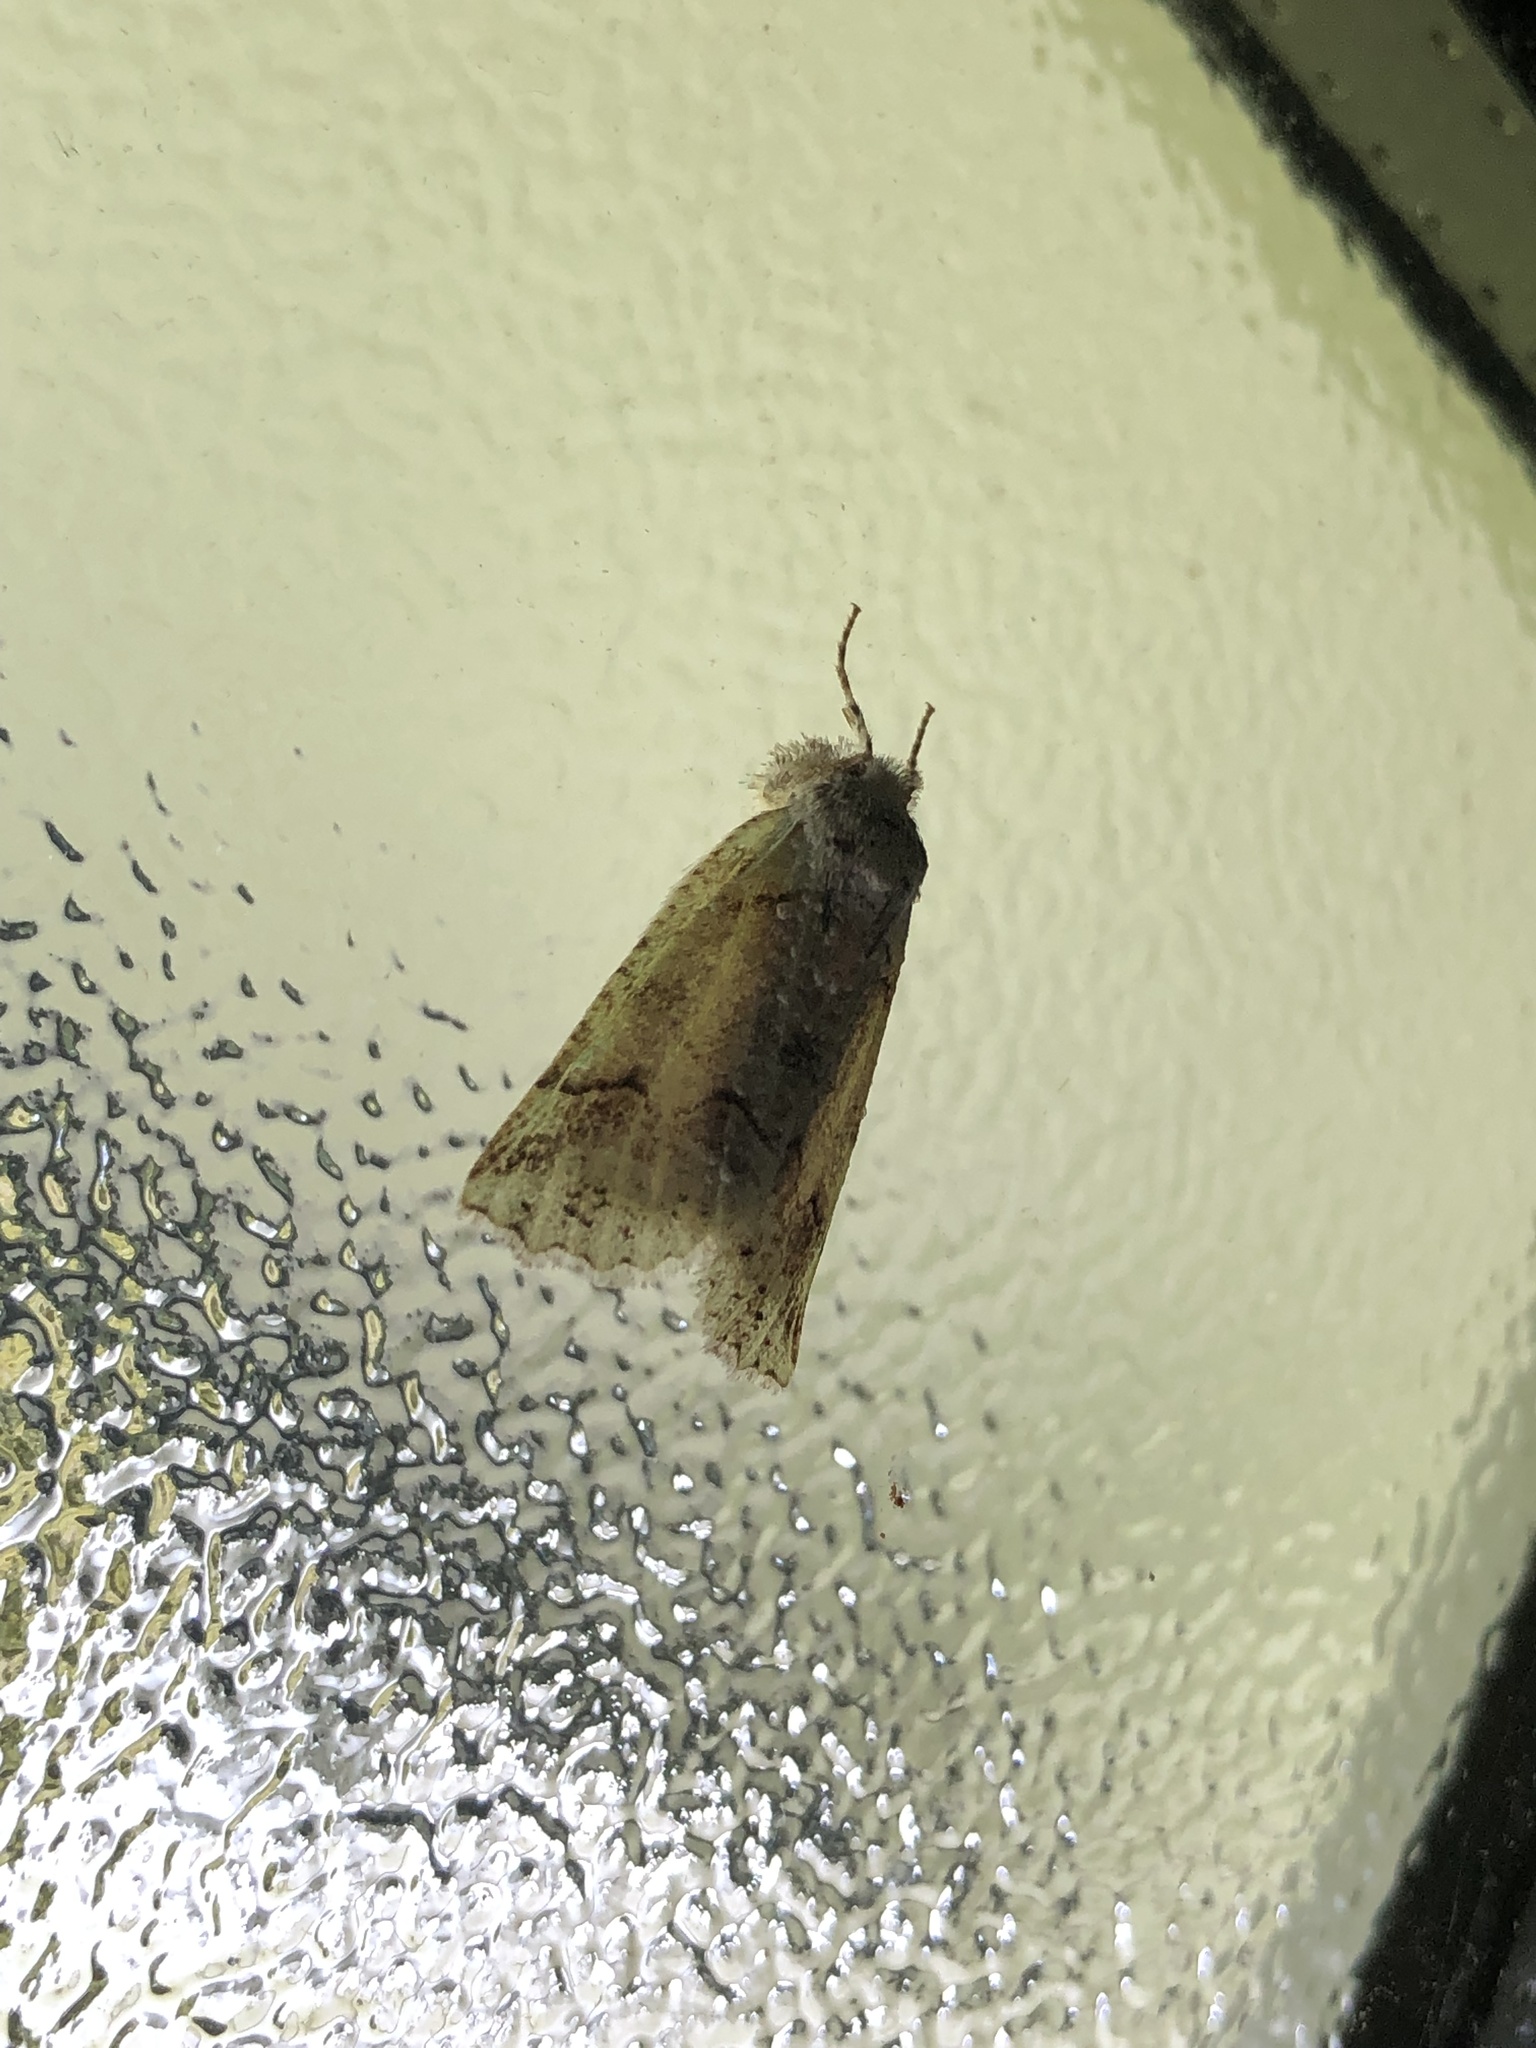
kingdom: Animalia
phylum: Arthropoda
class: Insecta
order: Lepidoptera
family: Geometridae
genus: Declana
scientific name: Declana floccosa
